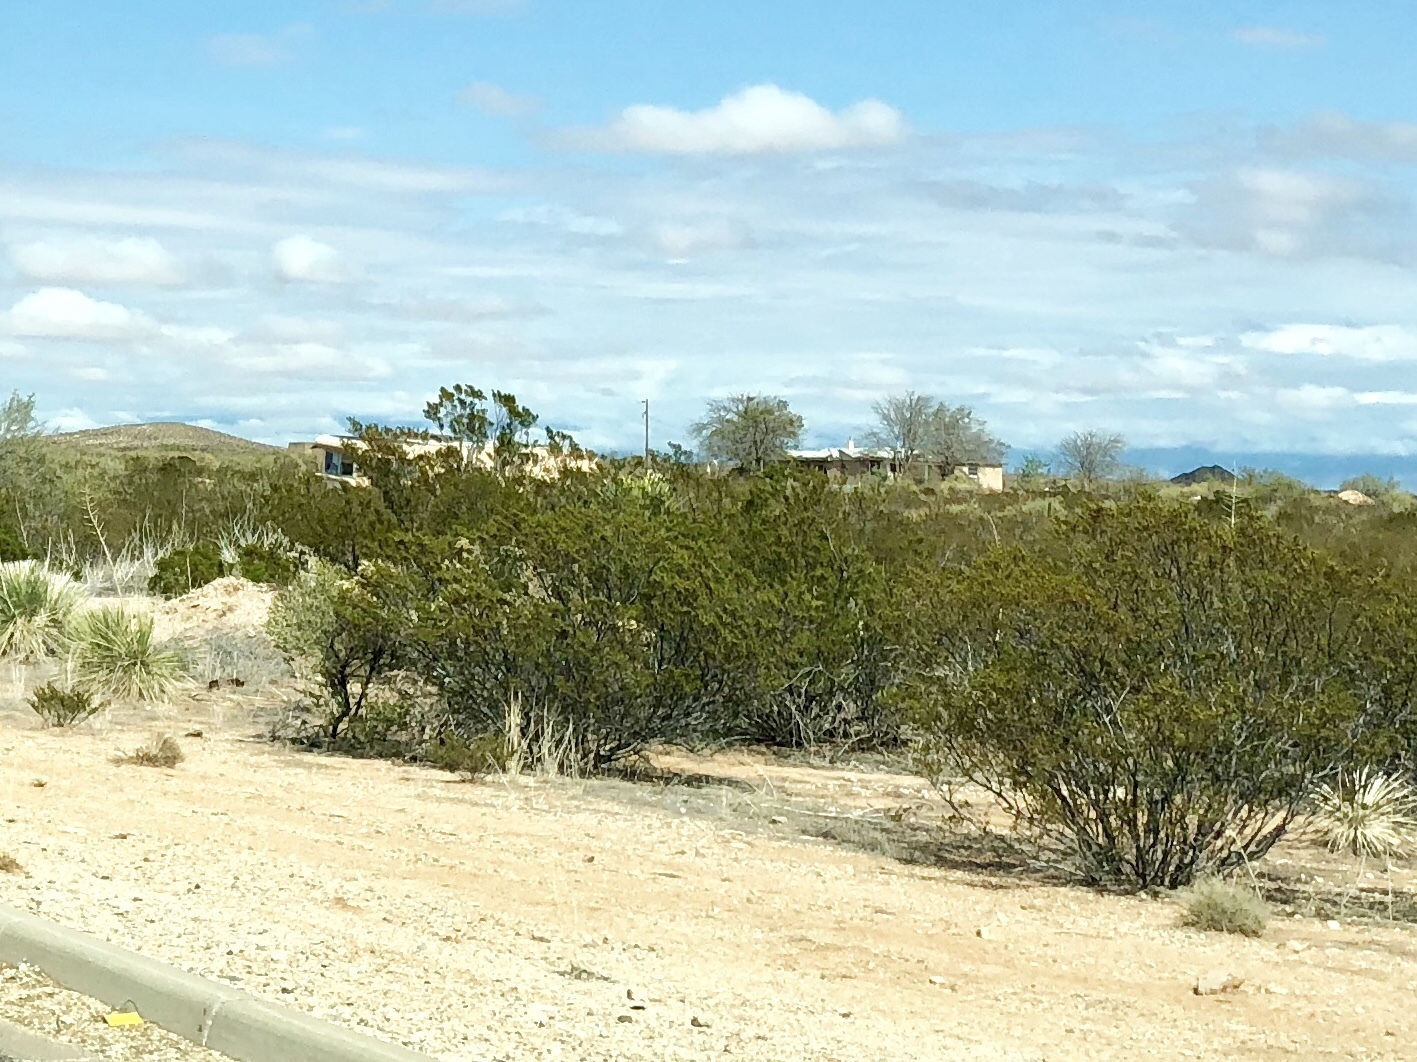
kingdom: Plantae
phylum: Tracheophyta
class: Magnoliopsida
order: Zygophyllales
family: Zygophyllaceae
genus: Larrea
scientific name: Larrea tridentata
